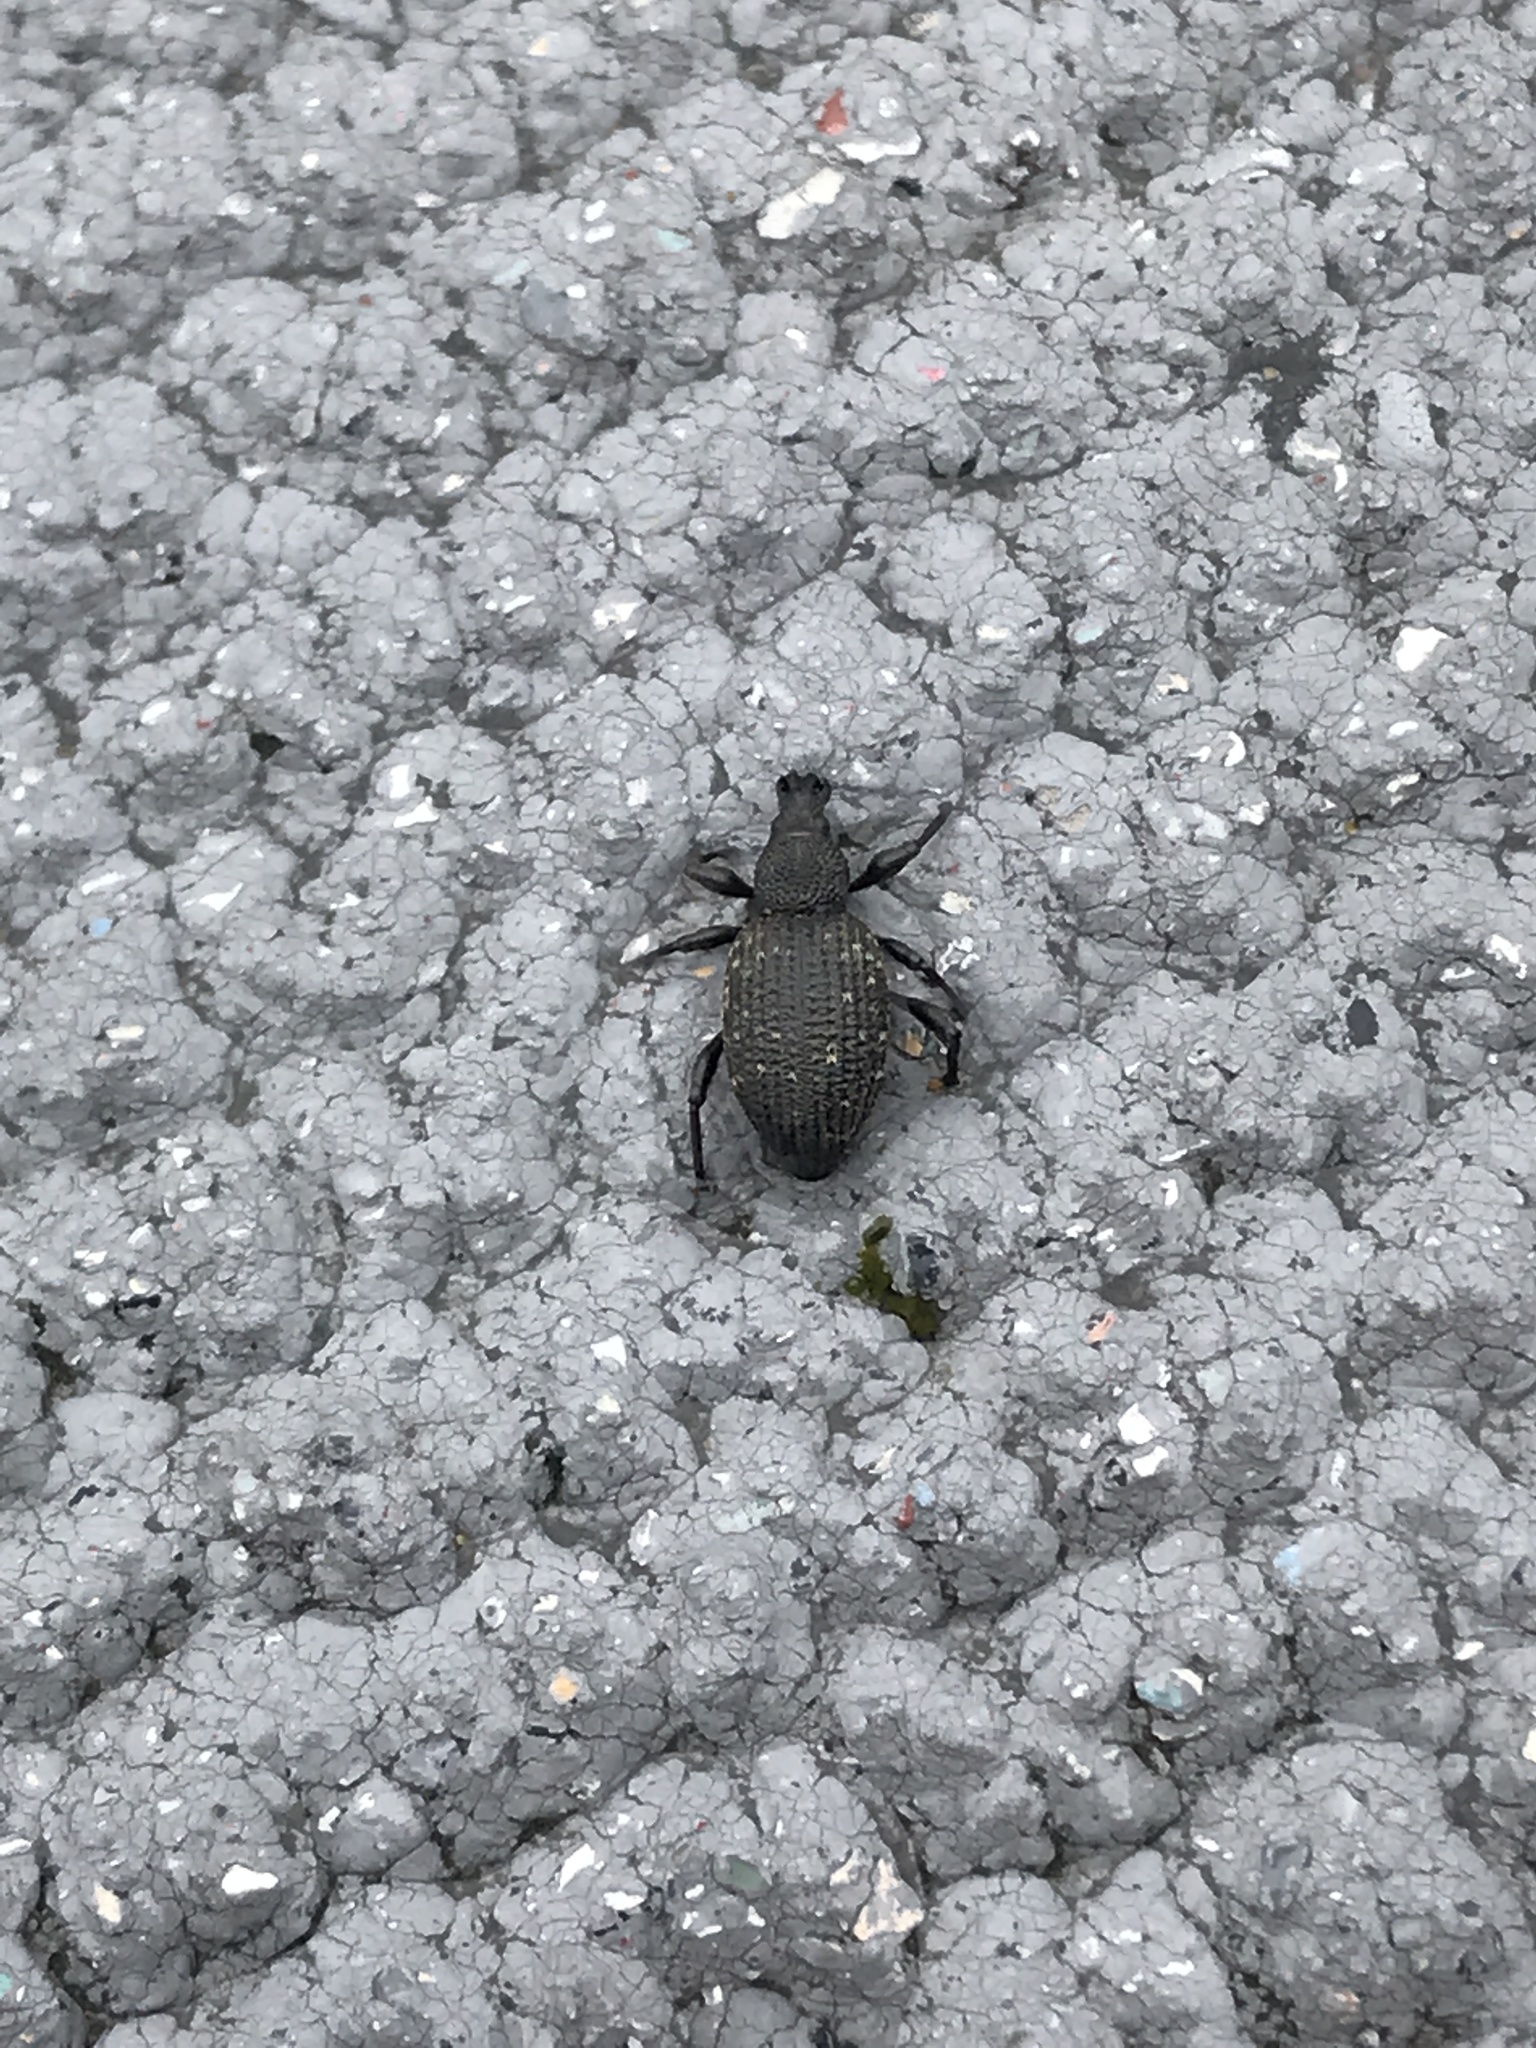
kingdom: Animalia
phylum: Arthropoda
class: Insecta
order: Coleoptera
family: Curculionidae
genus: Otiorhynchus
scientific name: Otiorhynchus sulcatus
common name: Black vine weevil
